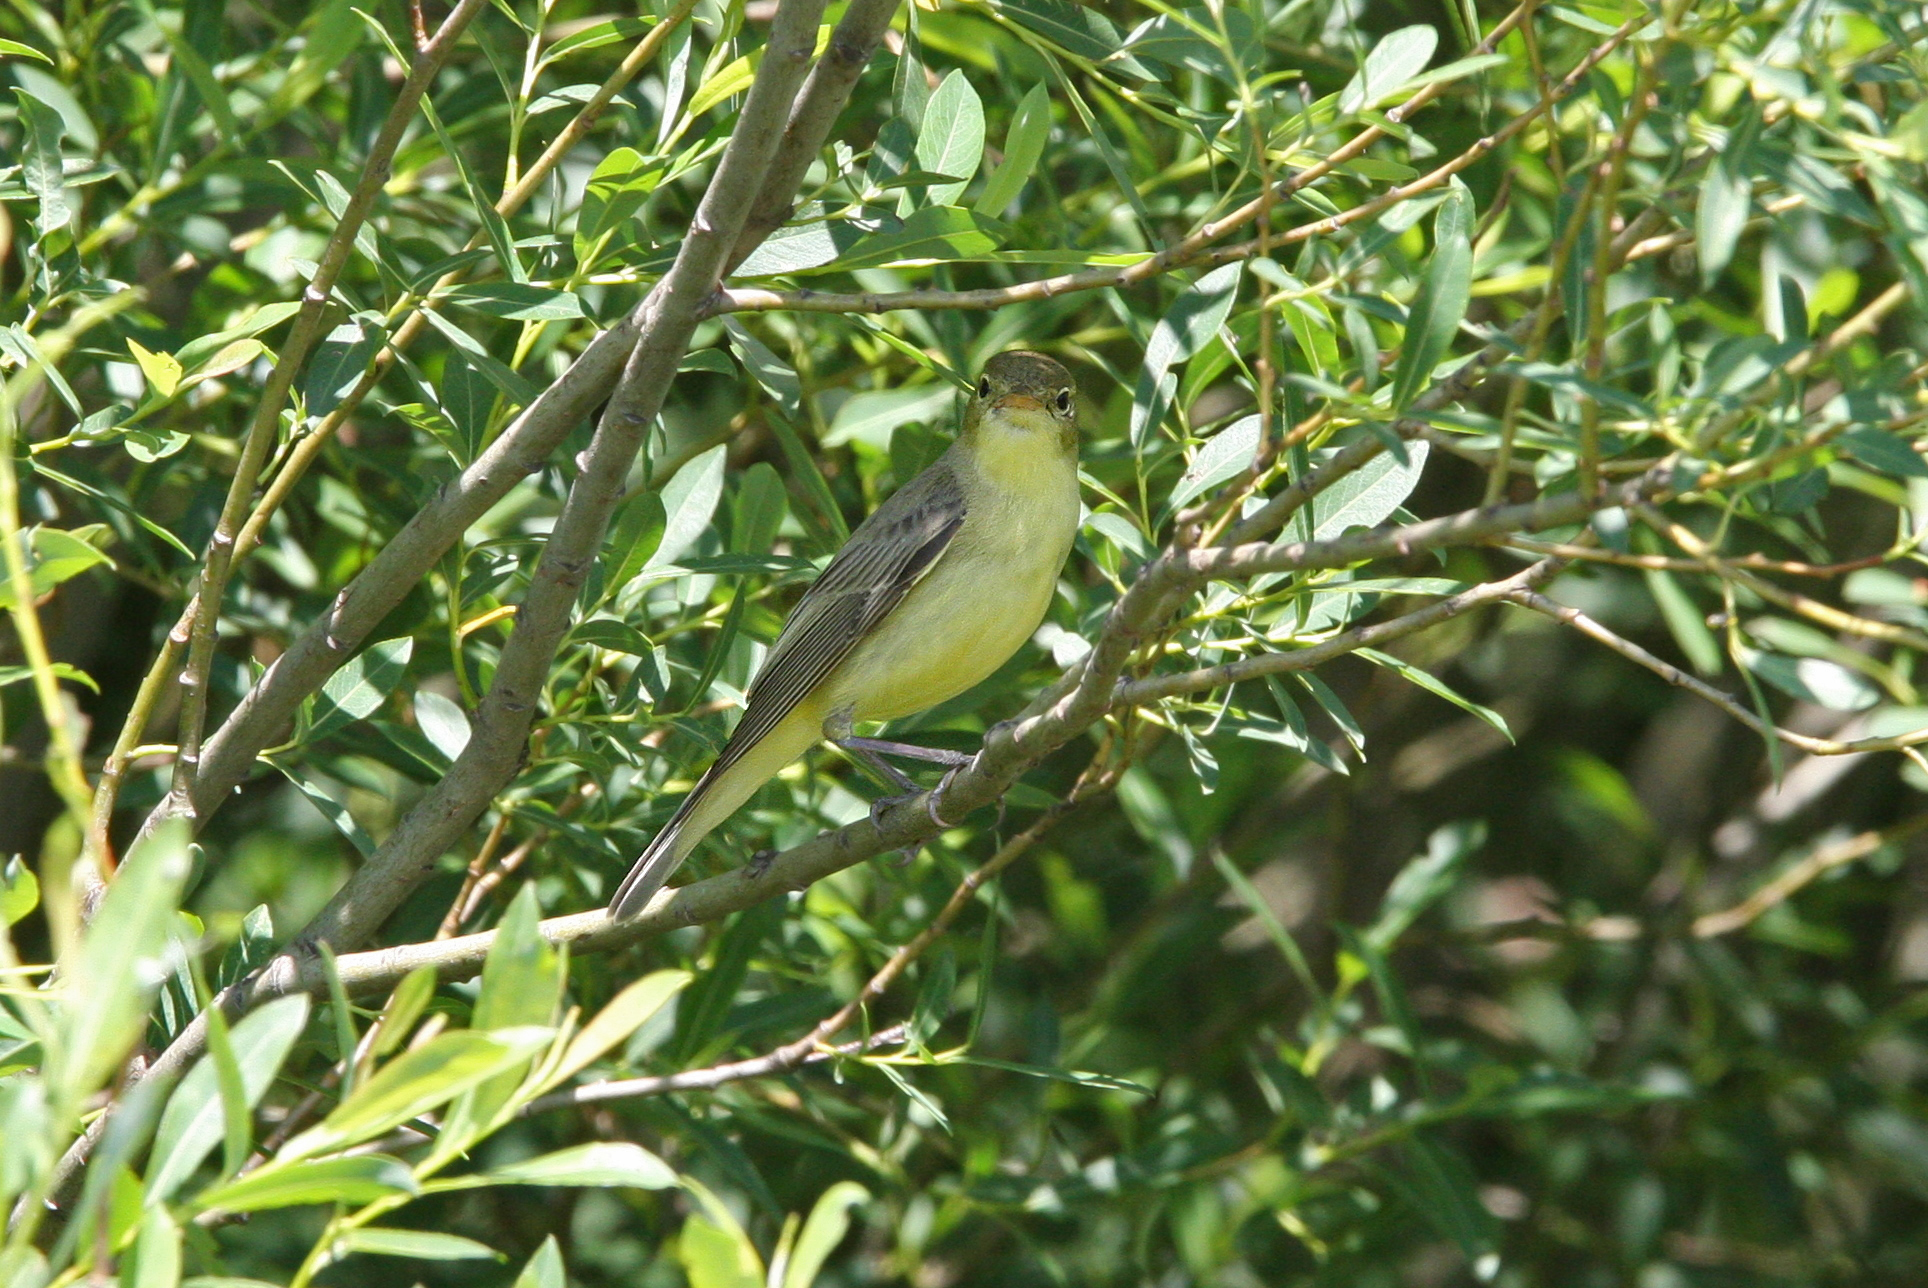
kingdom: Animalia
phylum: Chordata
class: Aves
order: Passeriformes
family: Acrocephalidae
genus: Hippolais
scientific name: Hippolais icterina
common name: Icterine warbler
